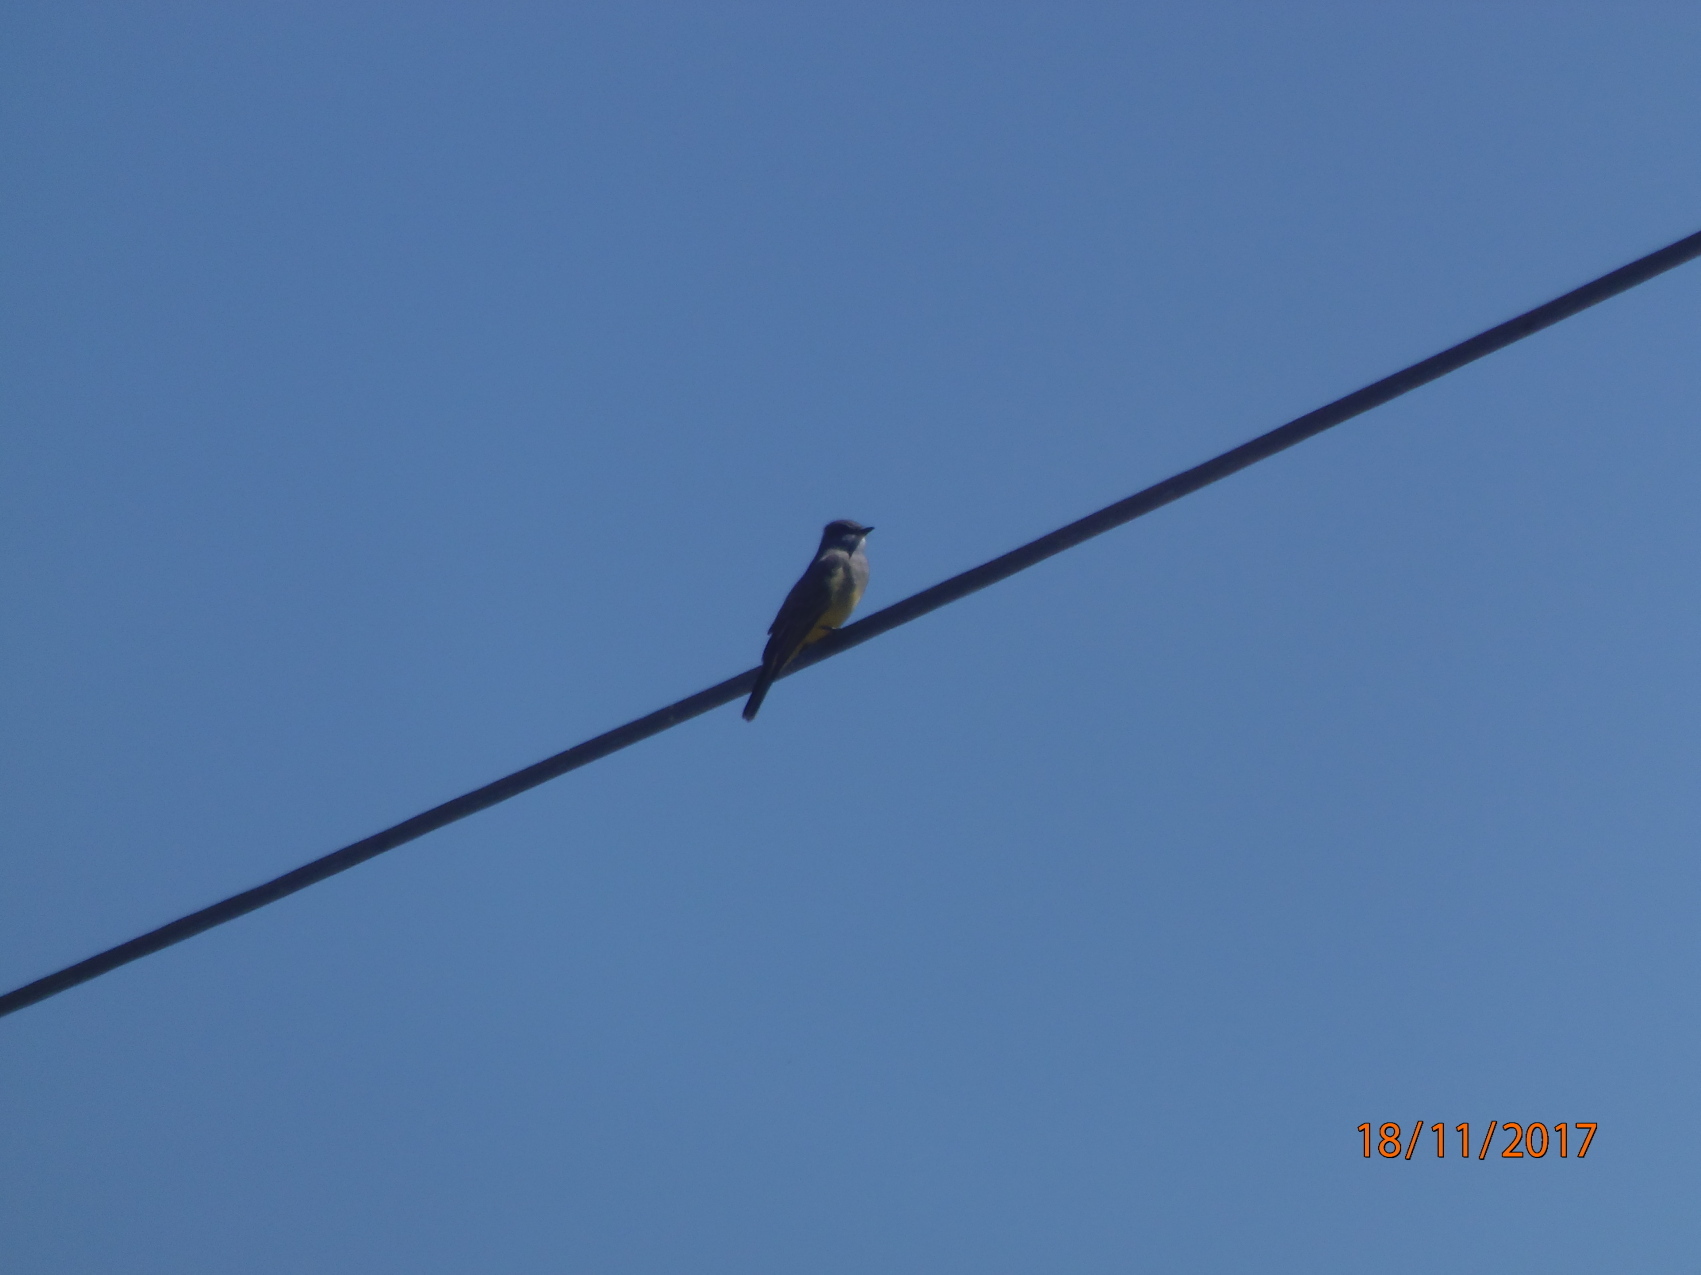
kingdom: Animalia
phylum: Chordata
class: Aves
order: Passeriformes
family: Tyrannidae
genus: Tyrannus
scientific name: Tyrannus vociferans
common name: Cassin's kingbird
